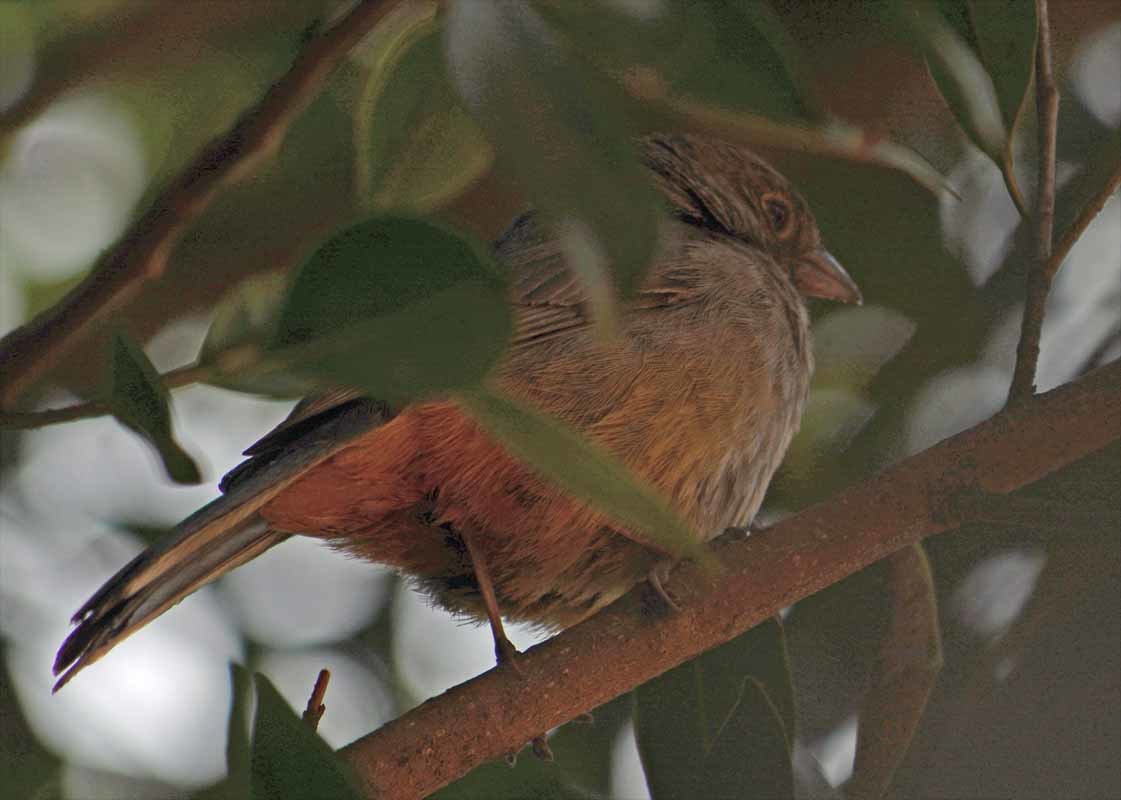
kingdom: Animalia
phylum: Chordata
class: Aves
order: Passeriformes
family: Passerellidae
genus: Melozone
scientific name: Melozone fusca
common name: Canyon towhee
